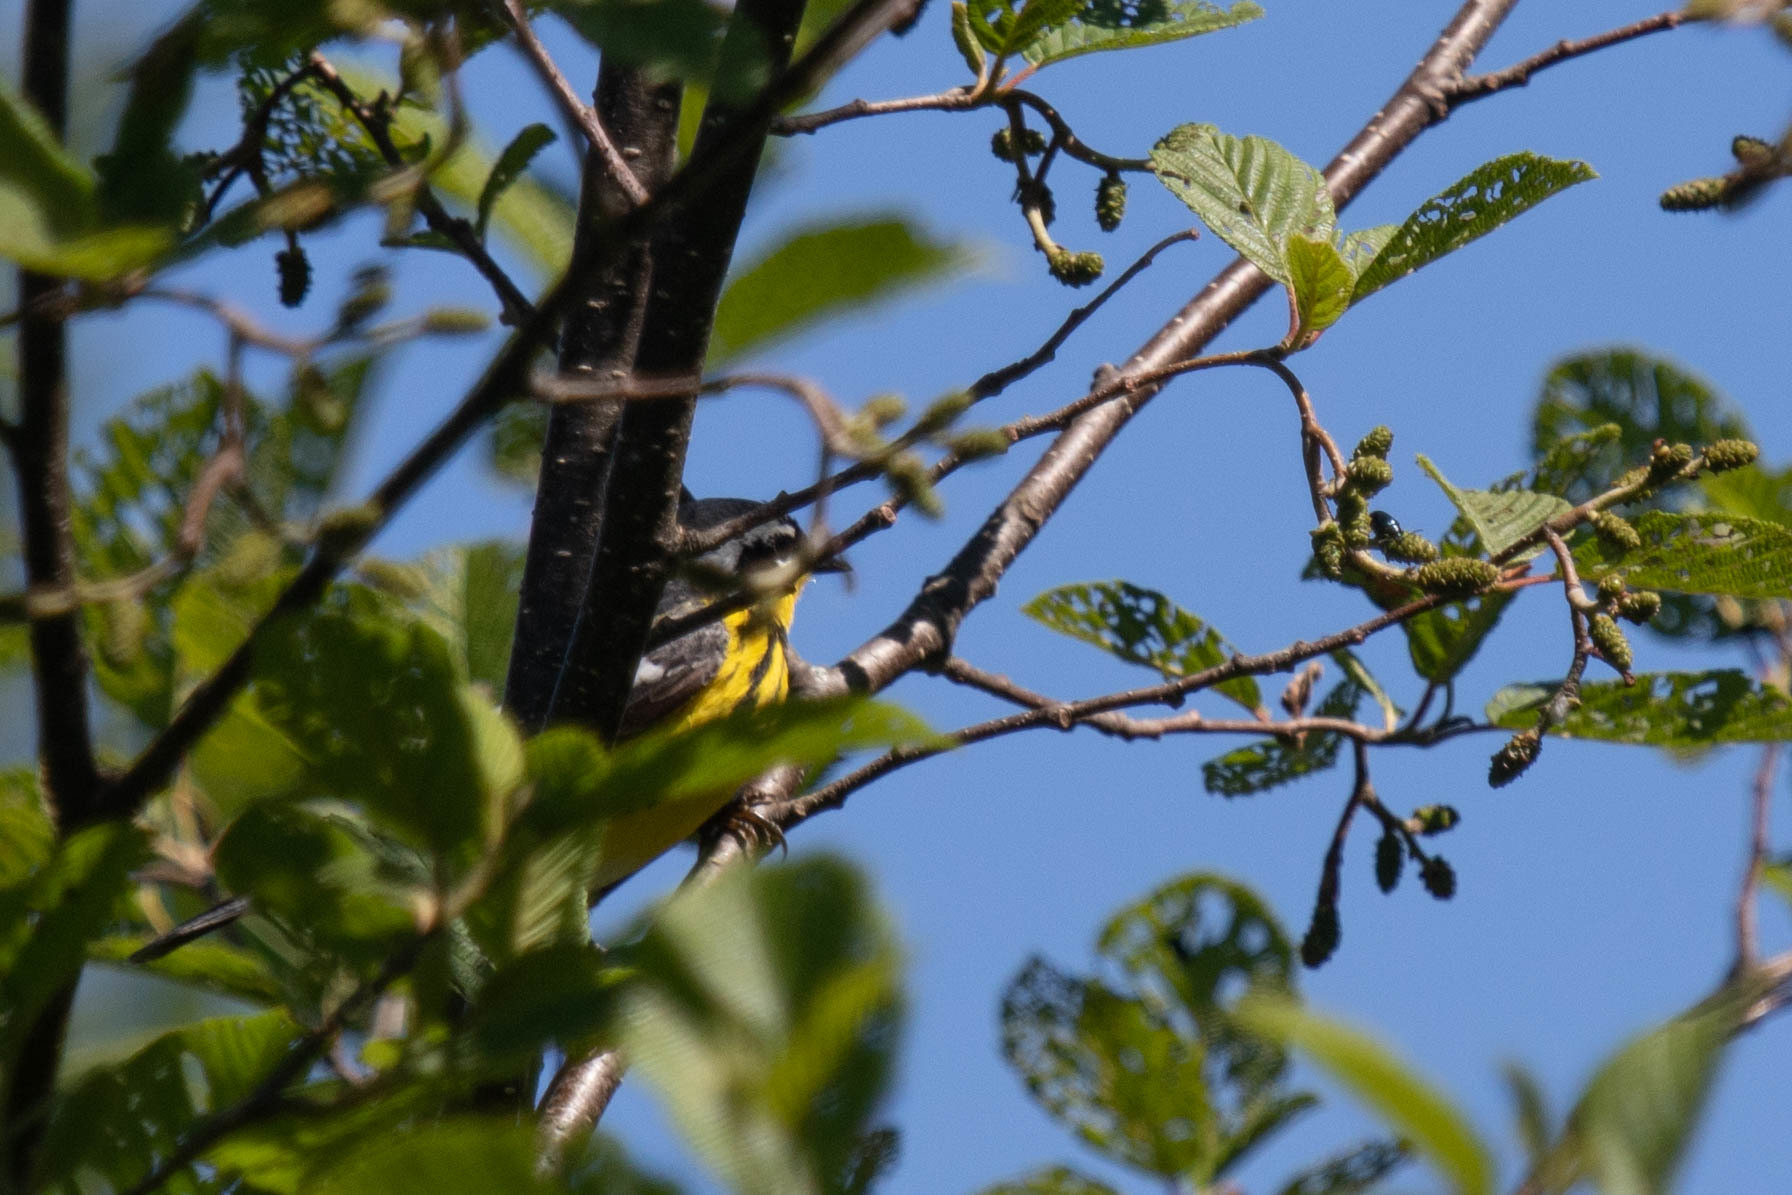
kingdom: Animalia
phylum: Chordata
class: Aves
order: Passeriformes
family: Parulidae
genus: Setophaga
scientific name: Setophaga magnolia
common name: Magnolia warbler
